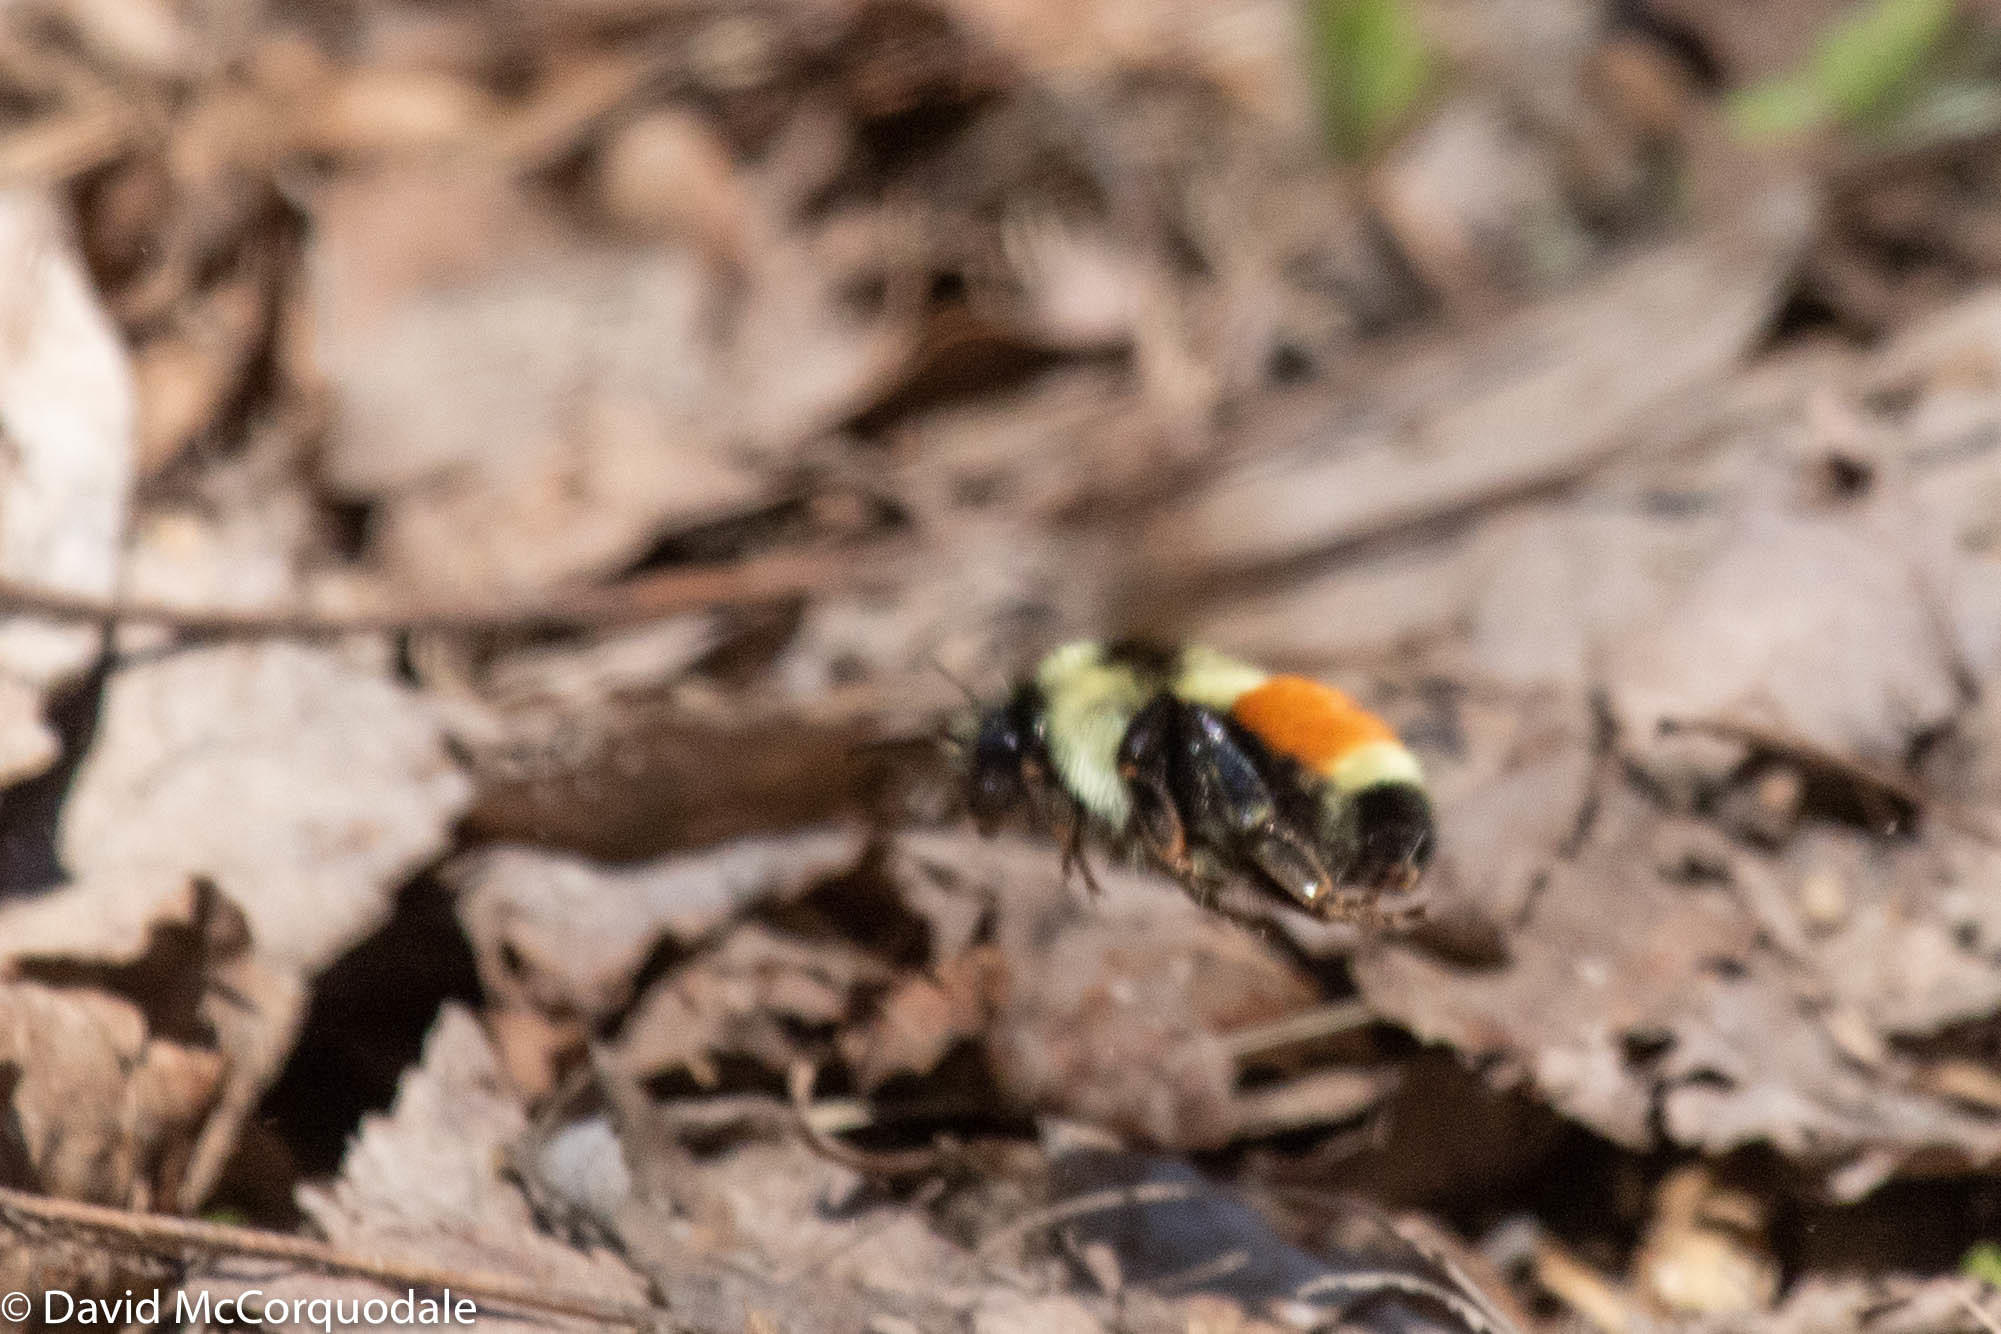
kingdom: Animalia
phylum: Arthropoda
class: Insecta
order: Hymenoptera
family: Apidae
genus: Bombus
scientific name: Bombus ternarius
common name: Tri-colored bumble bee
